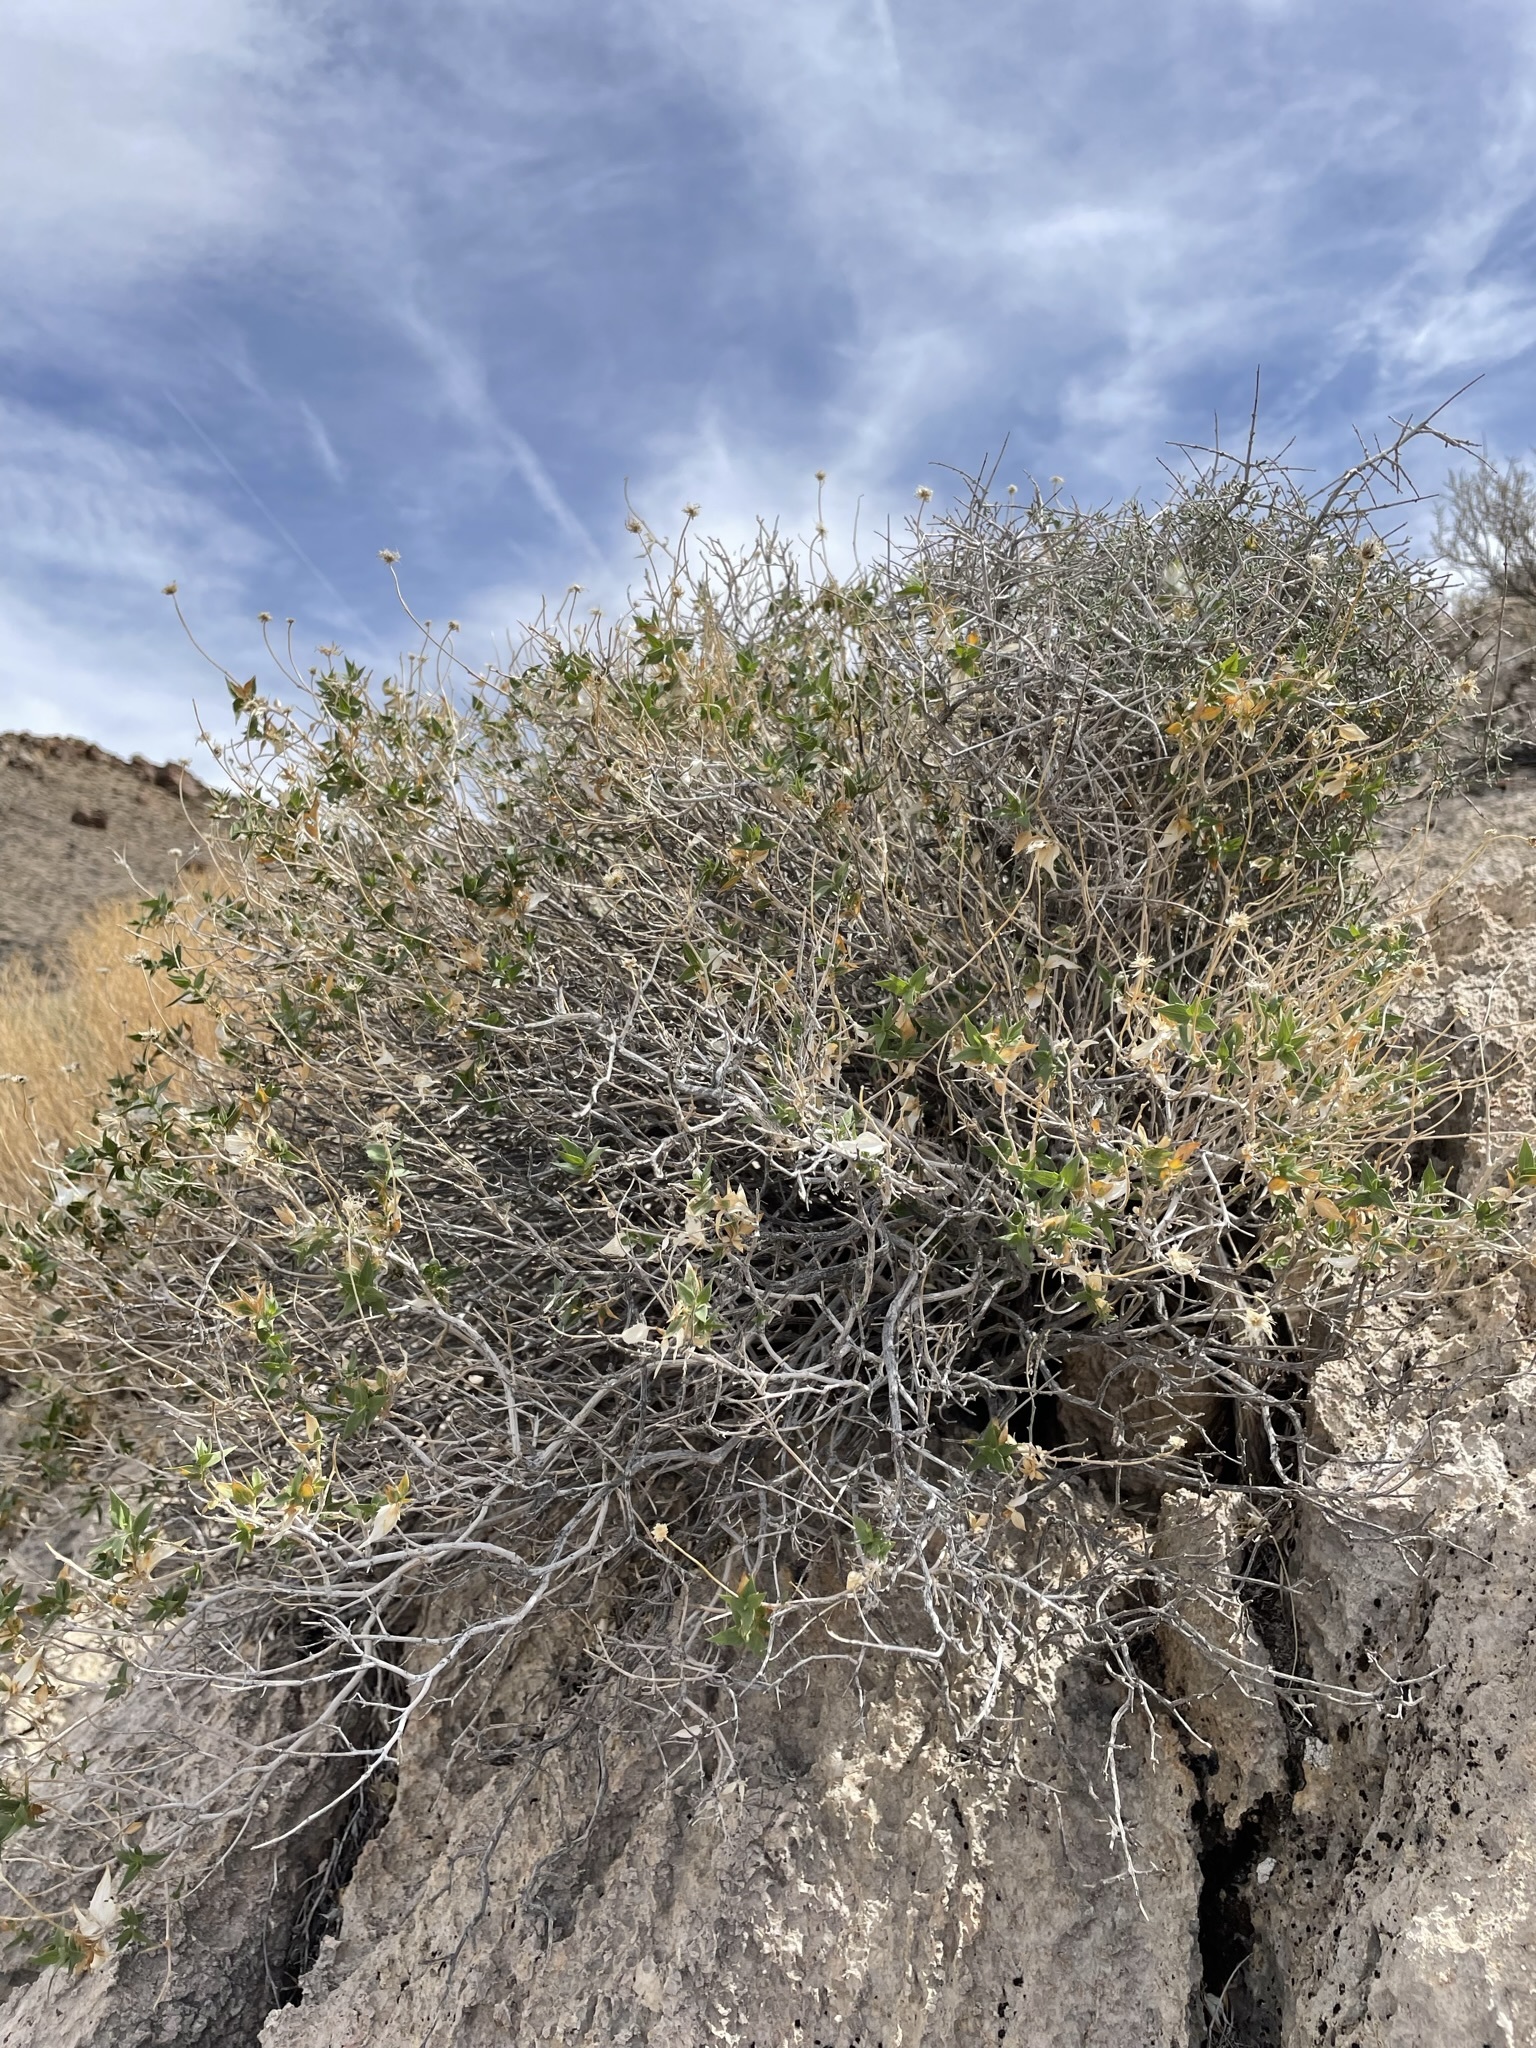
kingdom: Plantae
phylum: Tracheophyta
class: Magnoliopsida
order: Asterales
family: Asteraceae
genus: Brickellia
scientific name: Brickellia atractyloides
